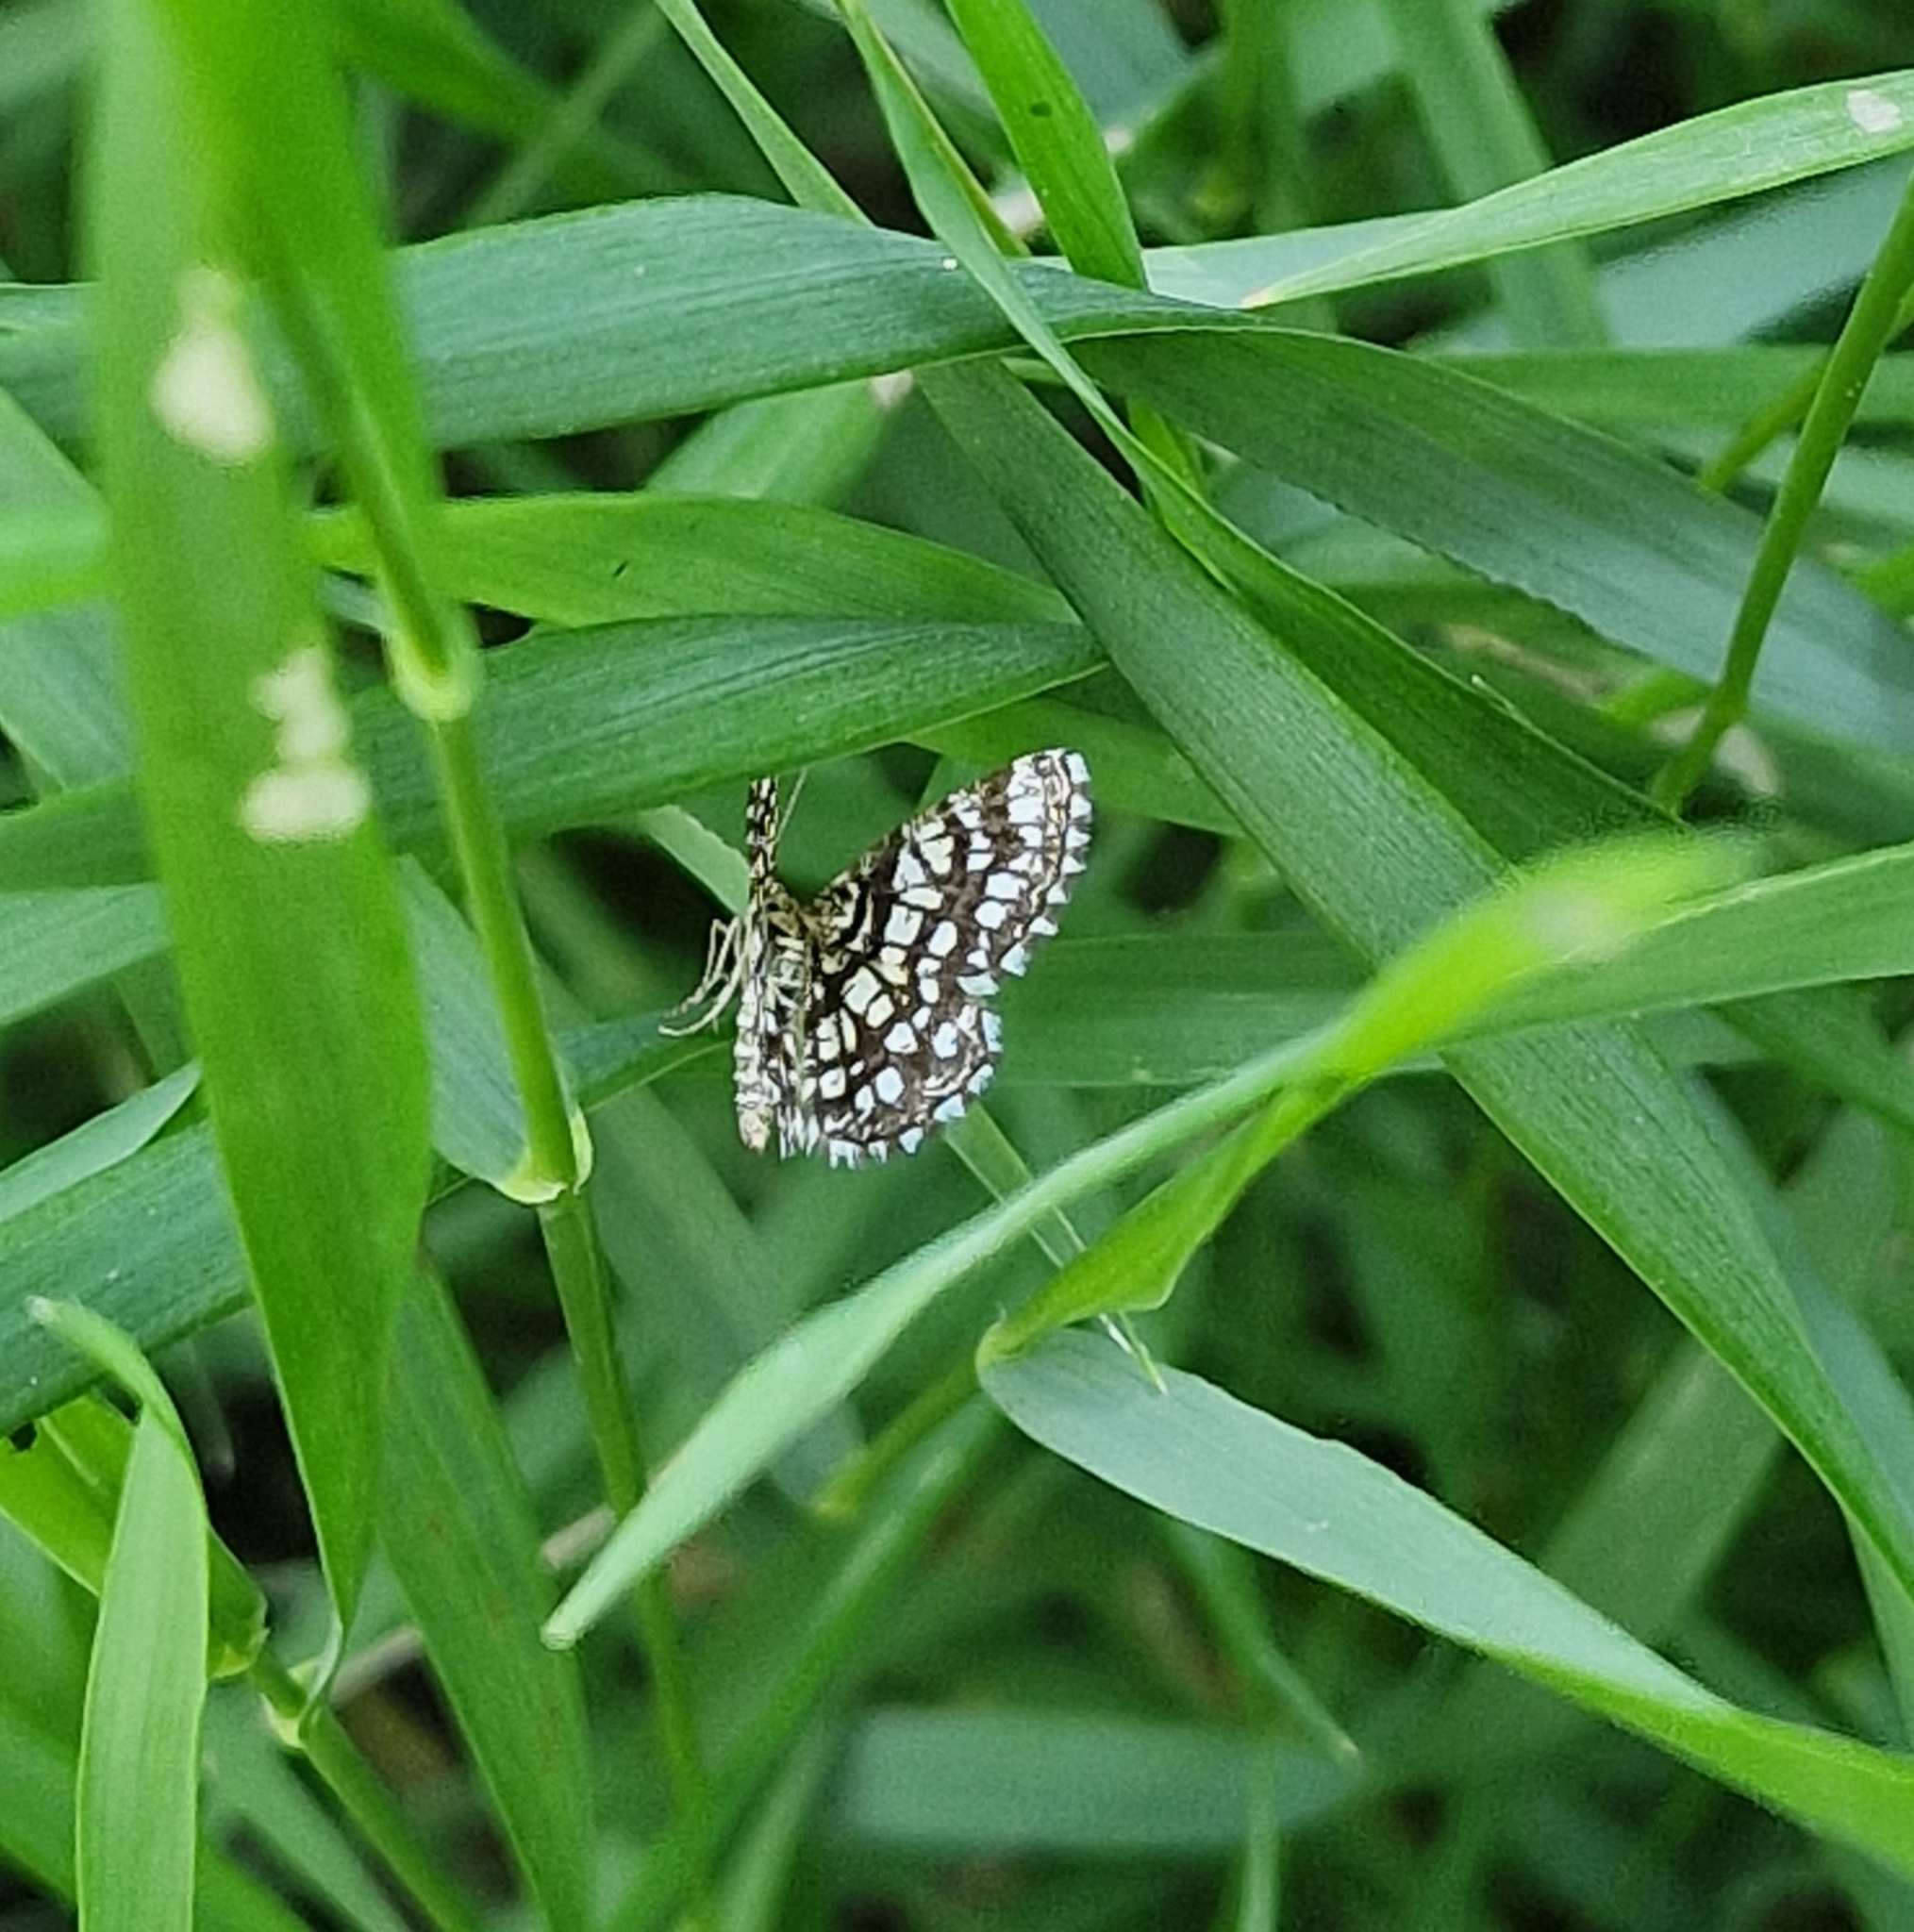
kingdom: Animalia
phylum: Arthropoda
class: Insecta
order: Lepidoptera
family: Geometridae
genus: Chiasmia
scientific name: Chiasmia clathrata
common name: Latticed heath
